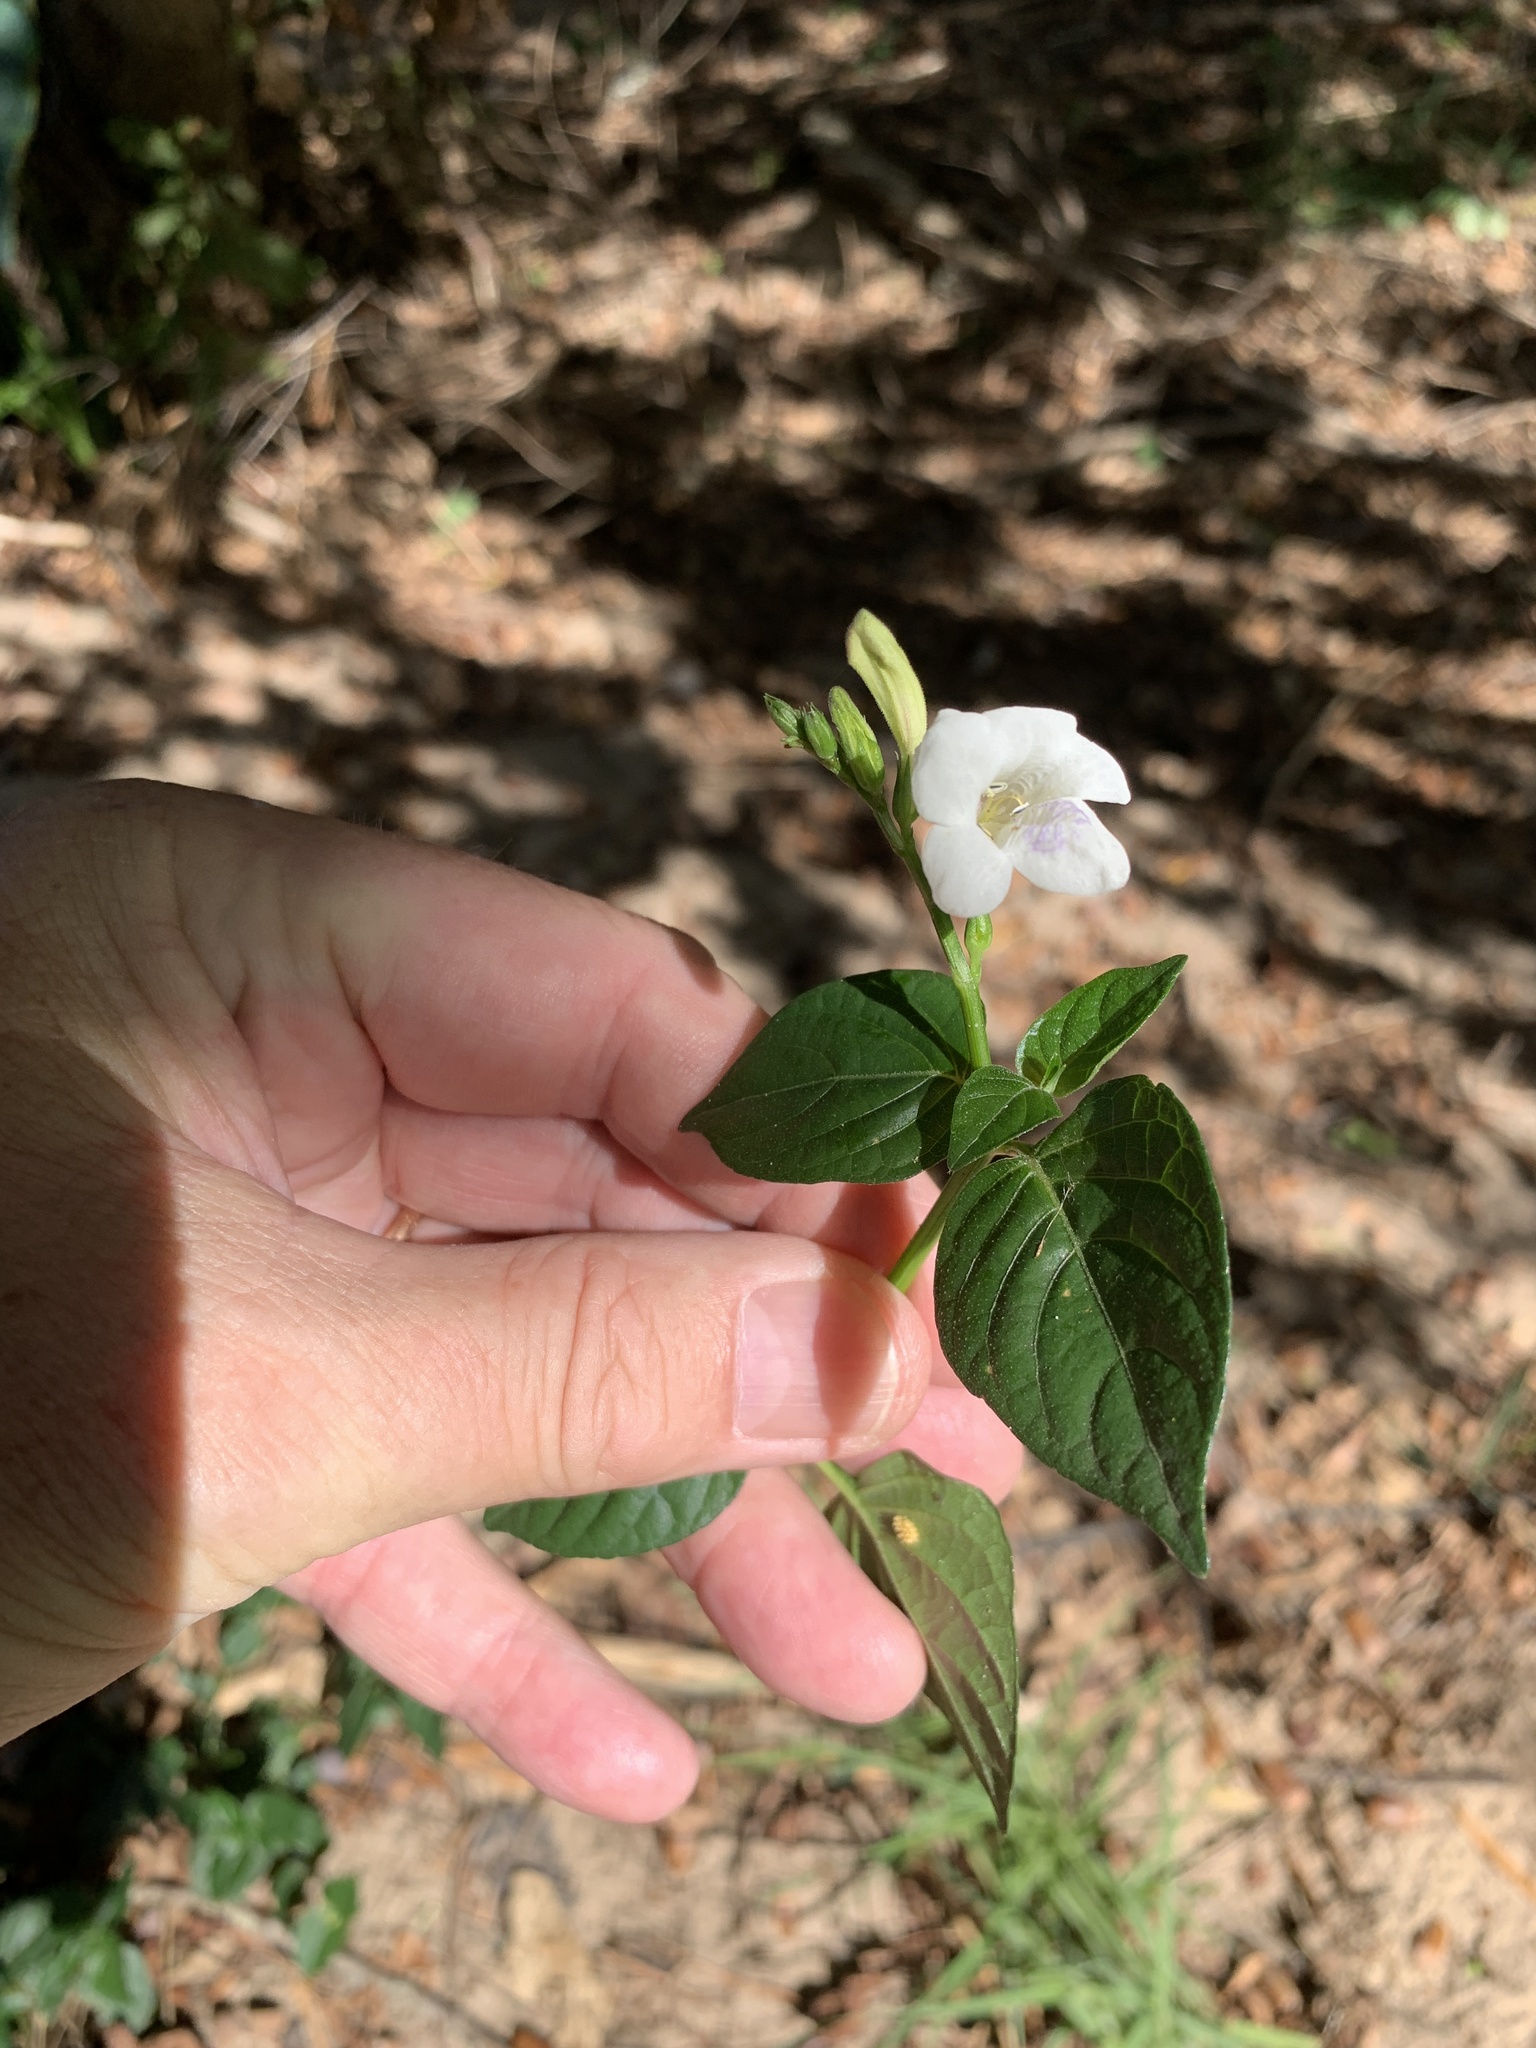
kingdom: Plantae
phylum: Tracheophyta
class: Magnoliopsida
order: Lamiales
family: Acanthaceae
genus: Asystasia
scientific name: Asystasia intrusa
